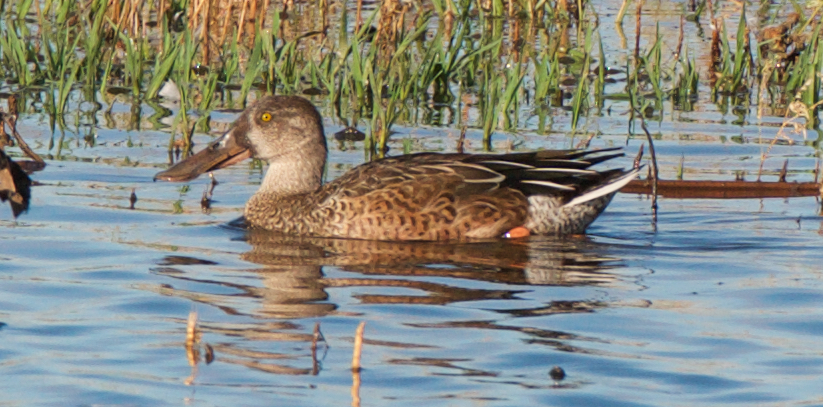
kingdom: Animalia
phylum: Chordata
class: Aves
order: Anseriformes
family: Anatidae
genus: Spatula
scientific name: Spatula clypeata
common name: Northern shoveler
